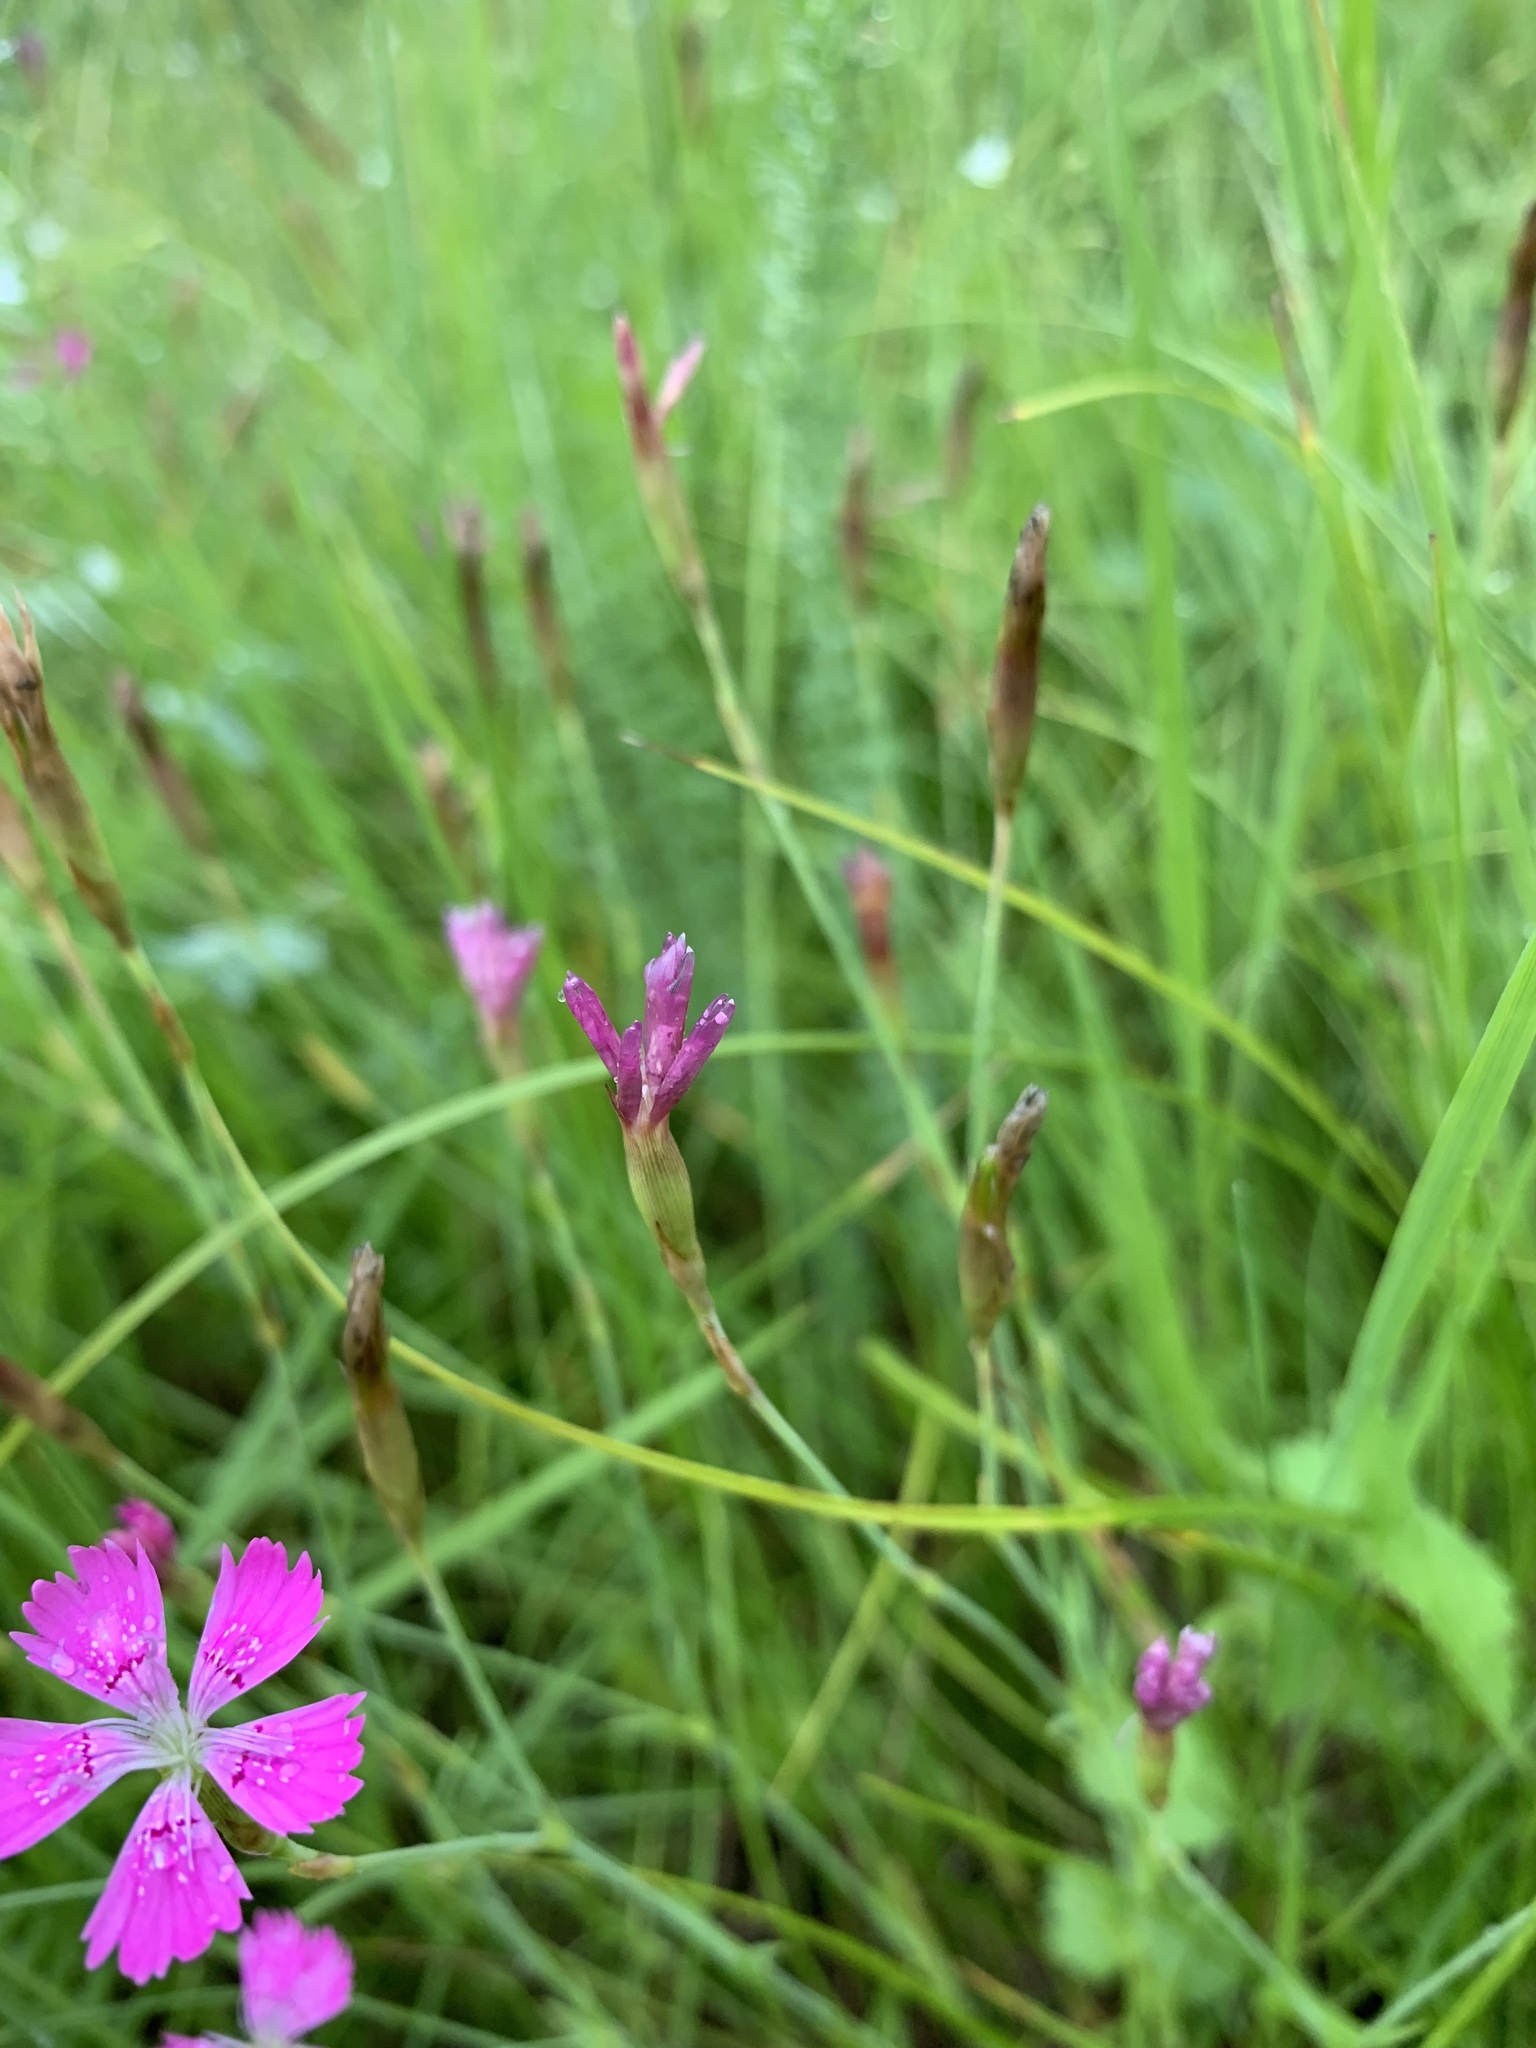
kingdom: Plantae
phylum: Tracheophyta
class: Magnoliopsida
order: Caryophyllales
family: Caryophyllaceae
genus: Dianthus
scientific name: Dianthus deltoides
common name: Maiden pink
